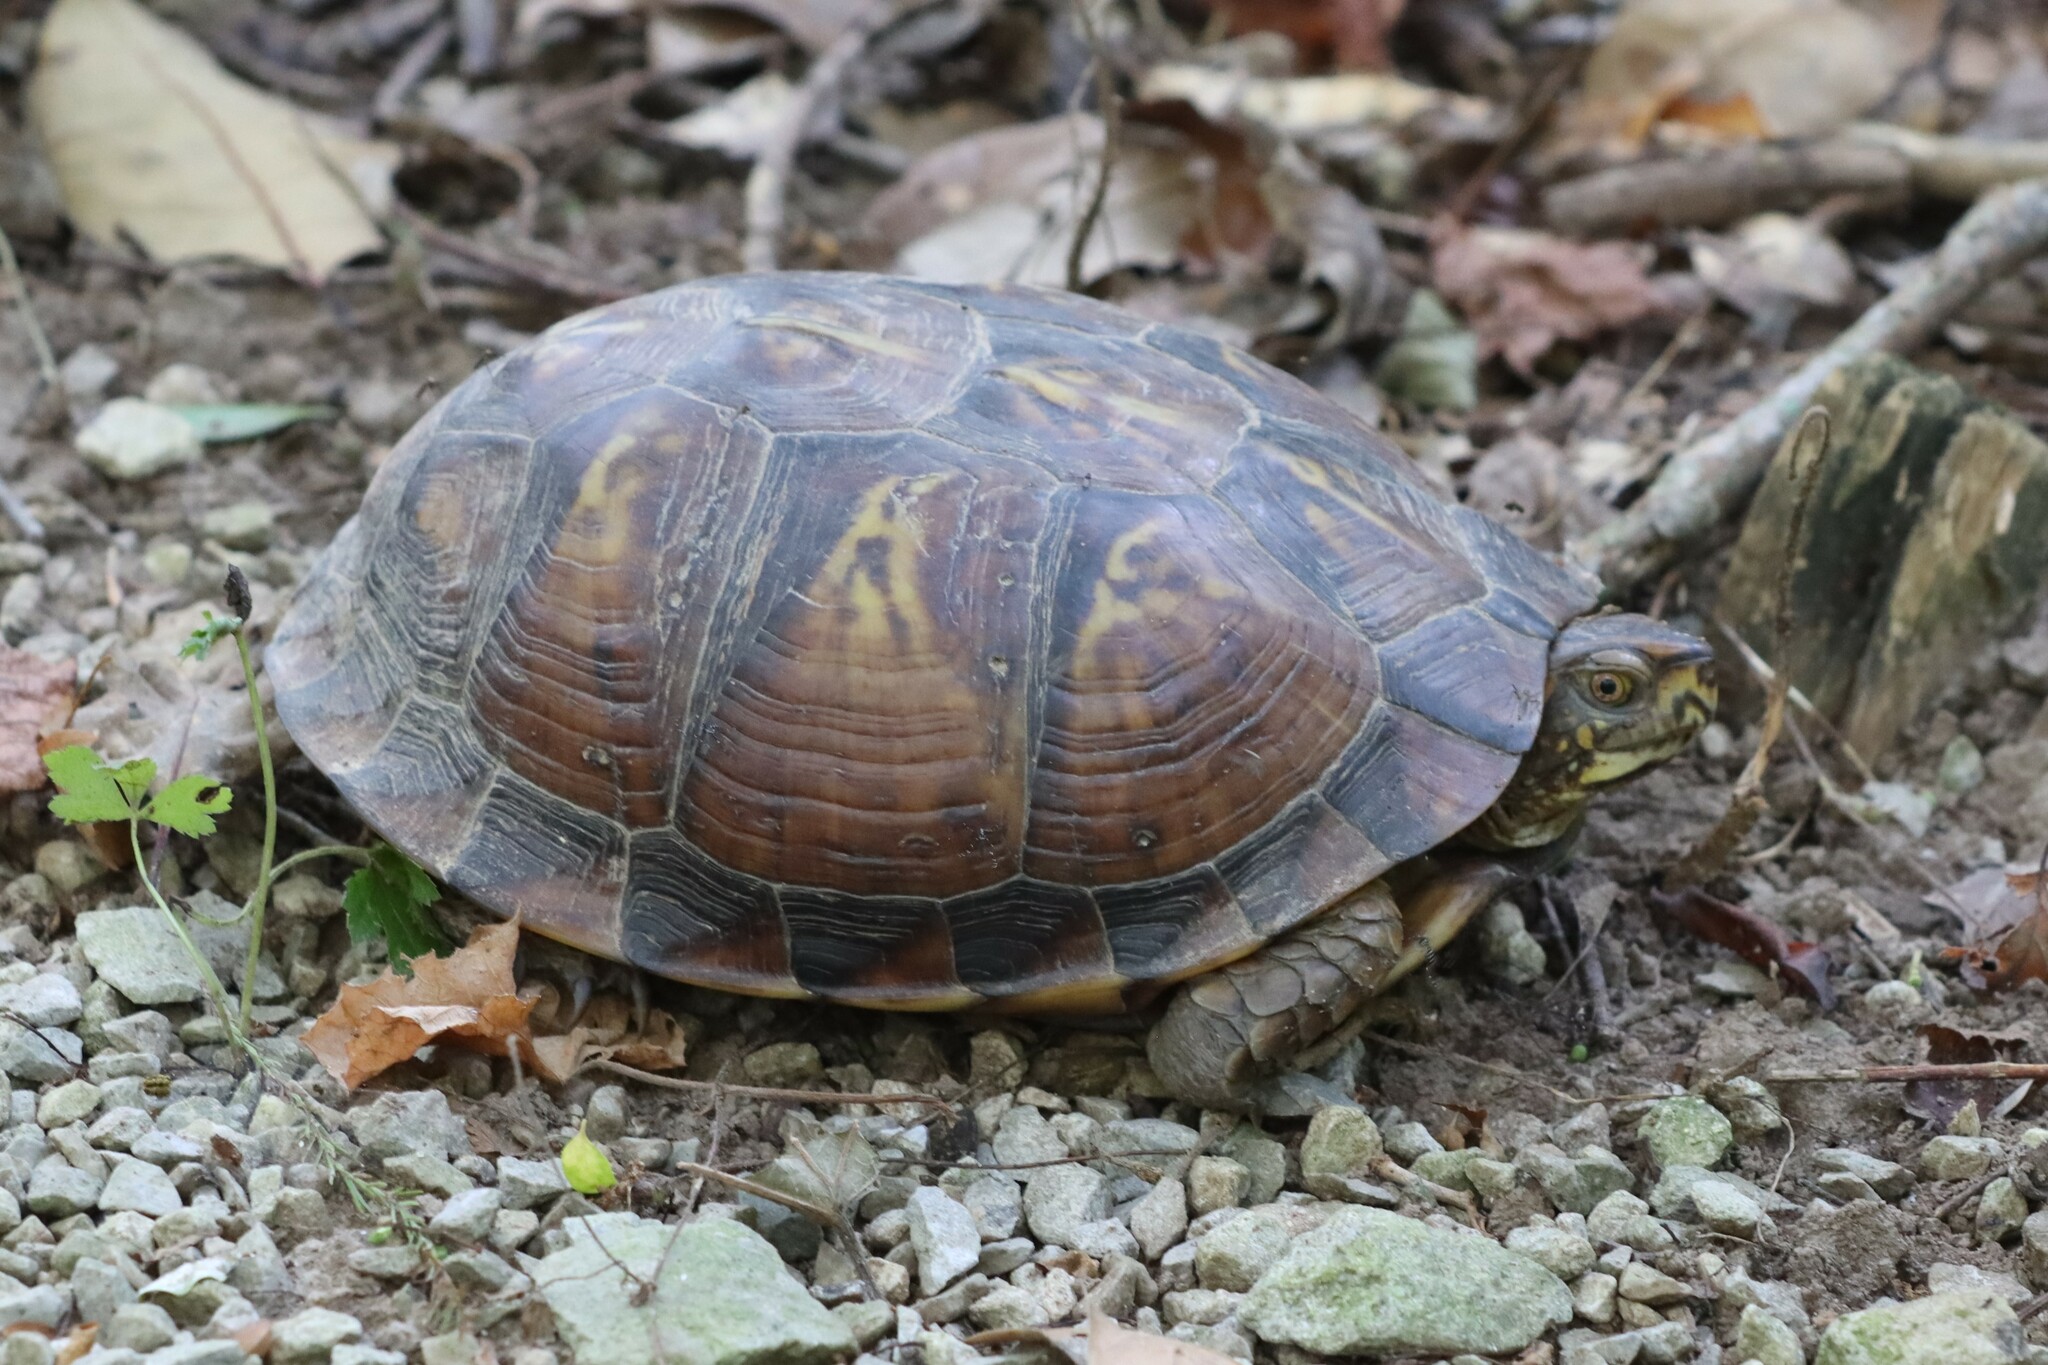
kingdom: Animalia
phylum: Chordata
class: Testudines
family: Emydidae
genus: Terrapene
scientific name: Terrapene carolina
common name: Common box turtle
